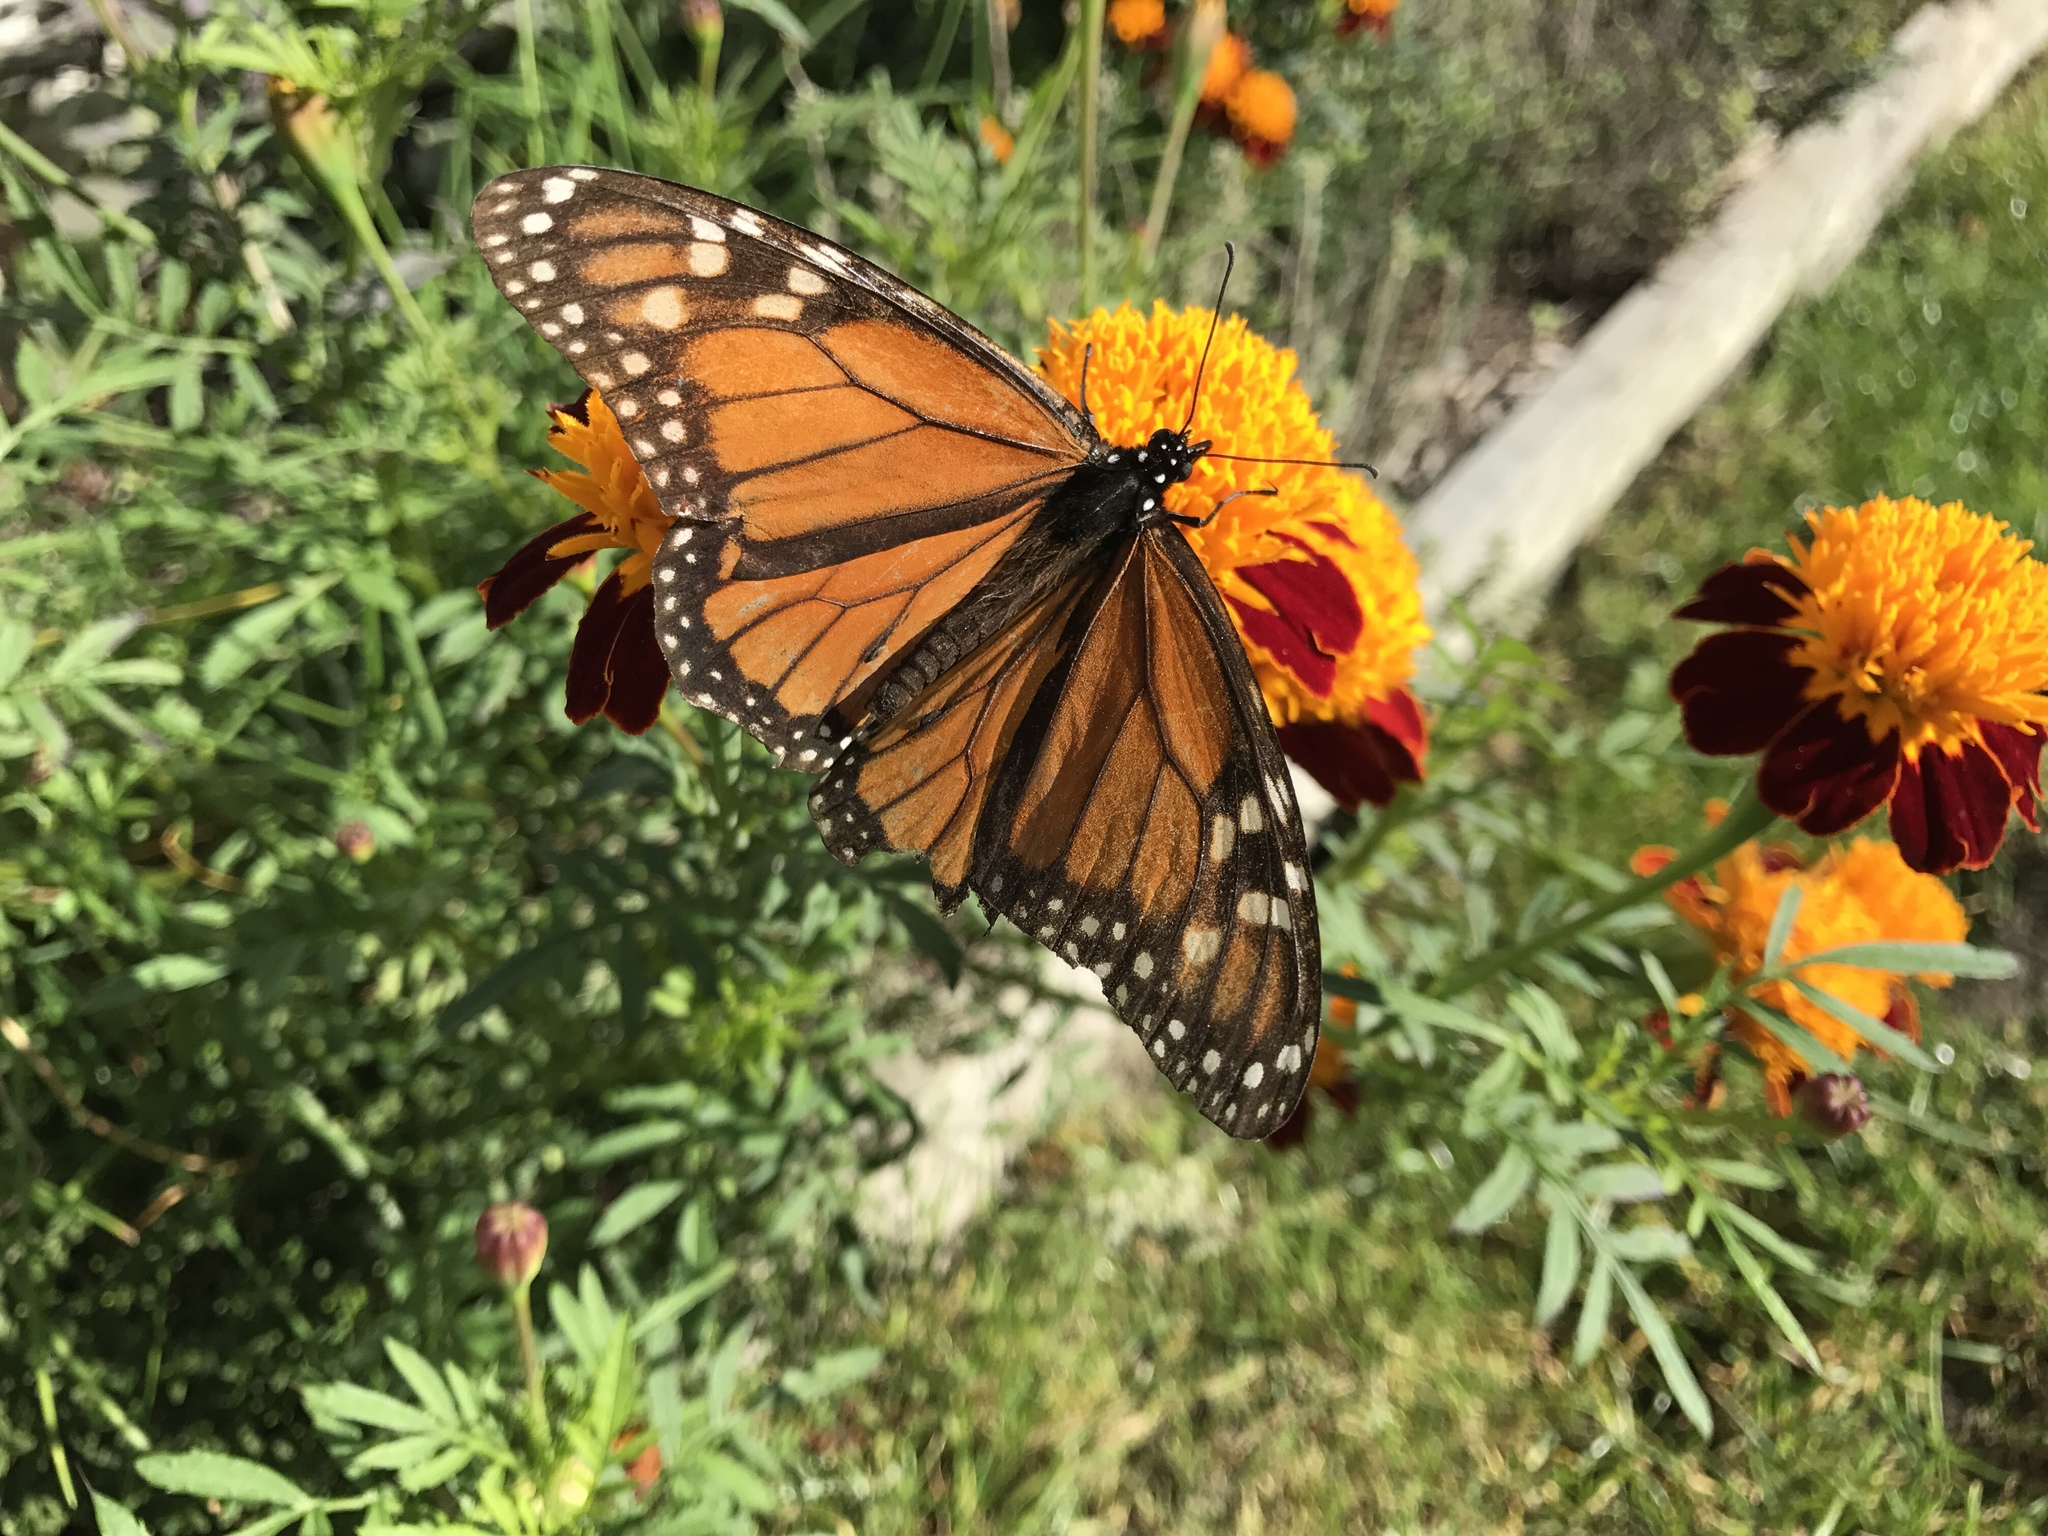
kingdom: Animalia
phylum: Arthropoda
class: Insecta
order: Lepidoptera
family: Nymphalidae
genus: Danaus
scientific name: Danaus plexippus
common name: Monarch
